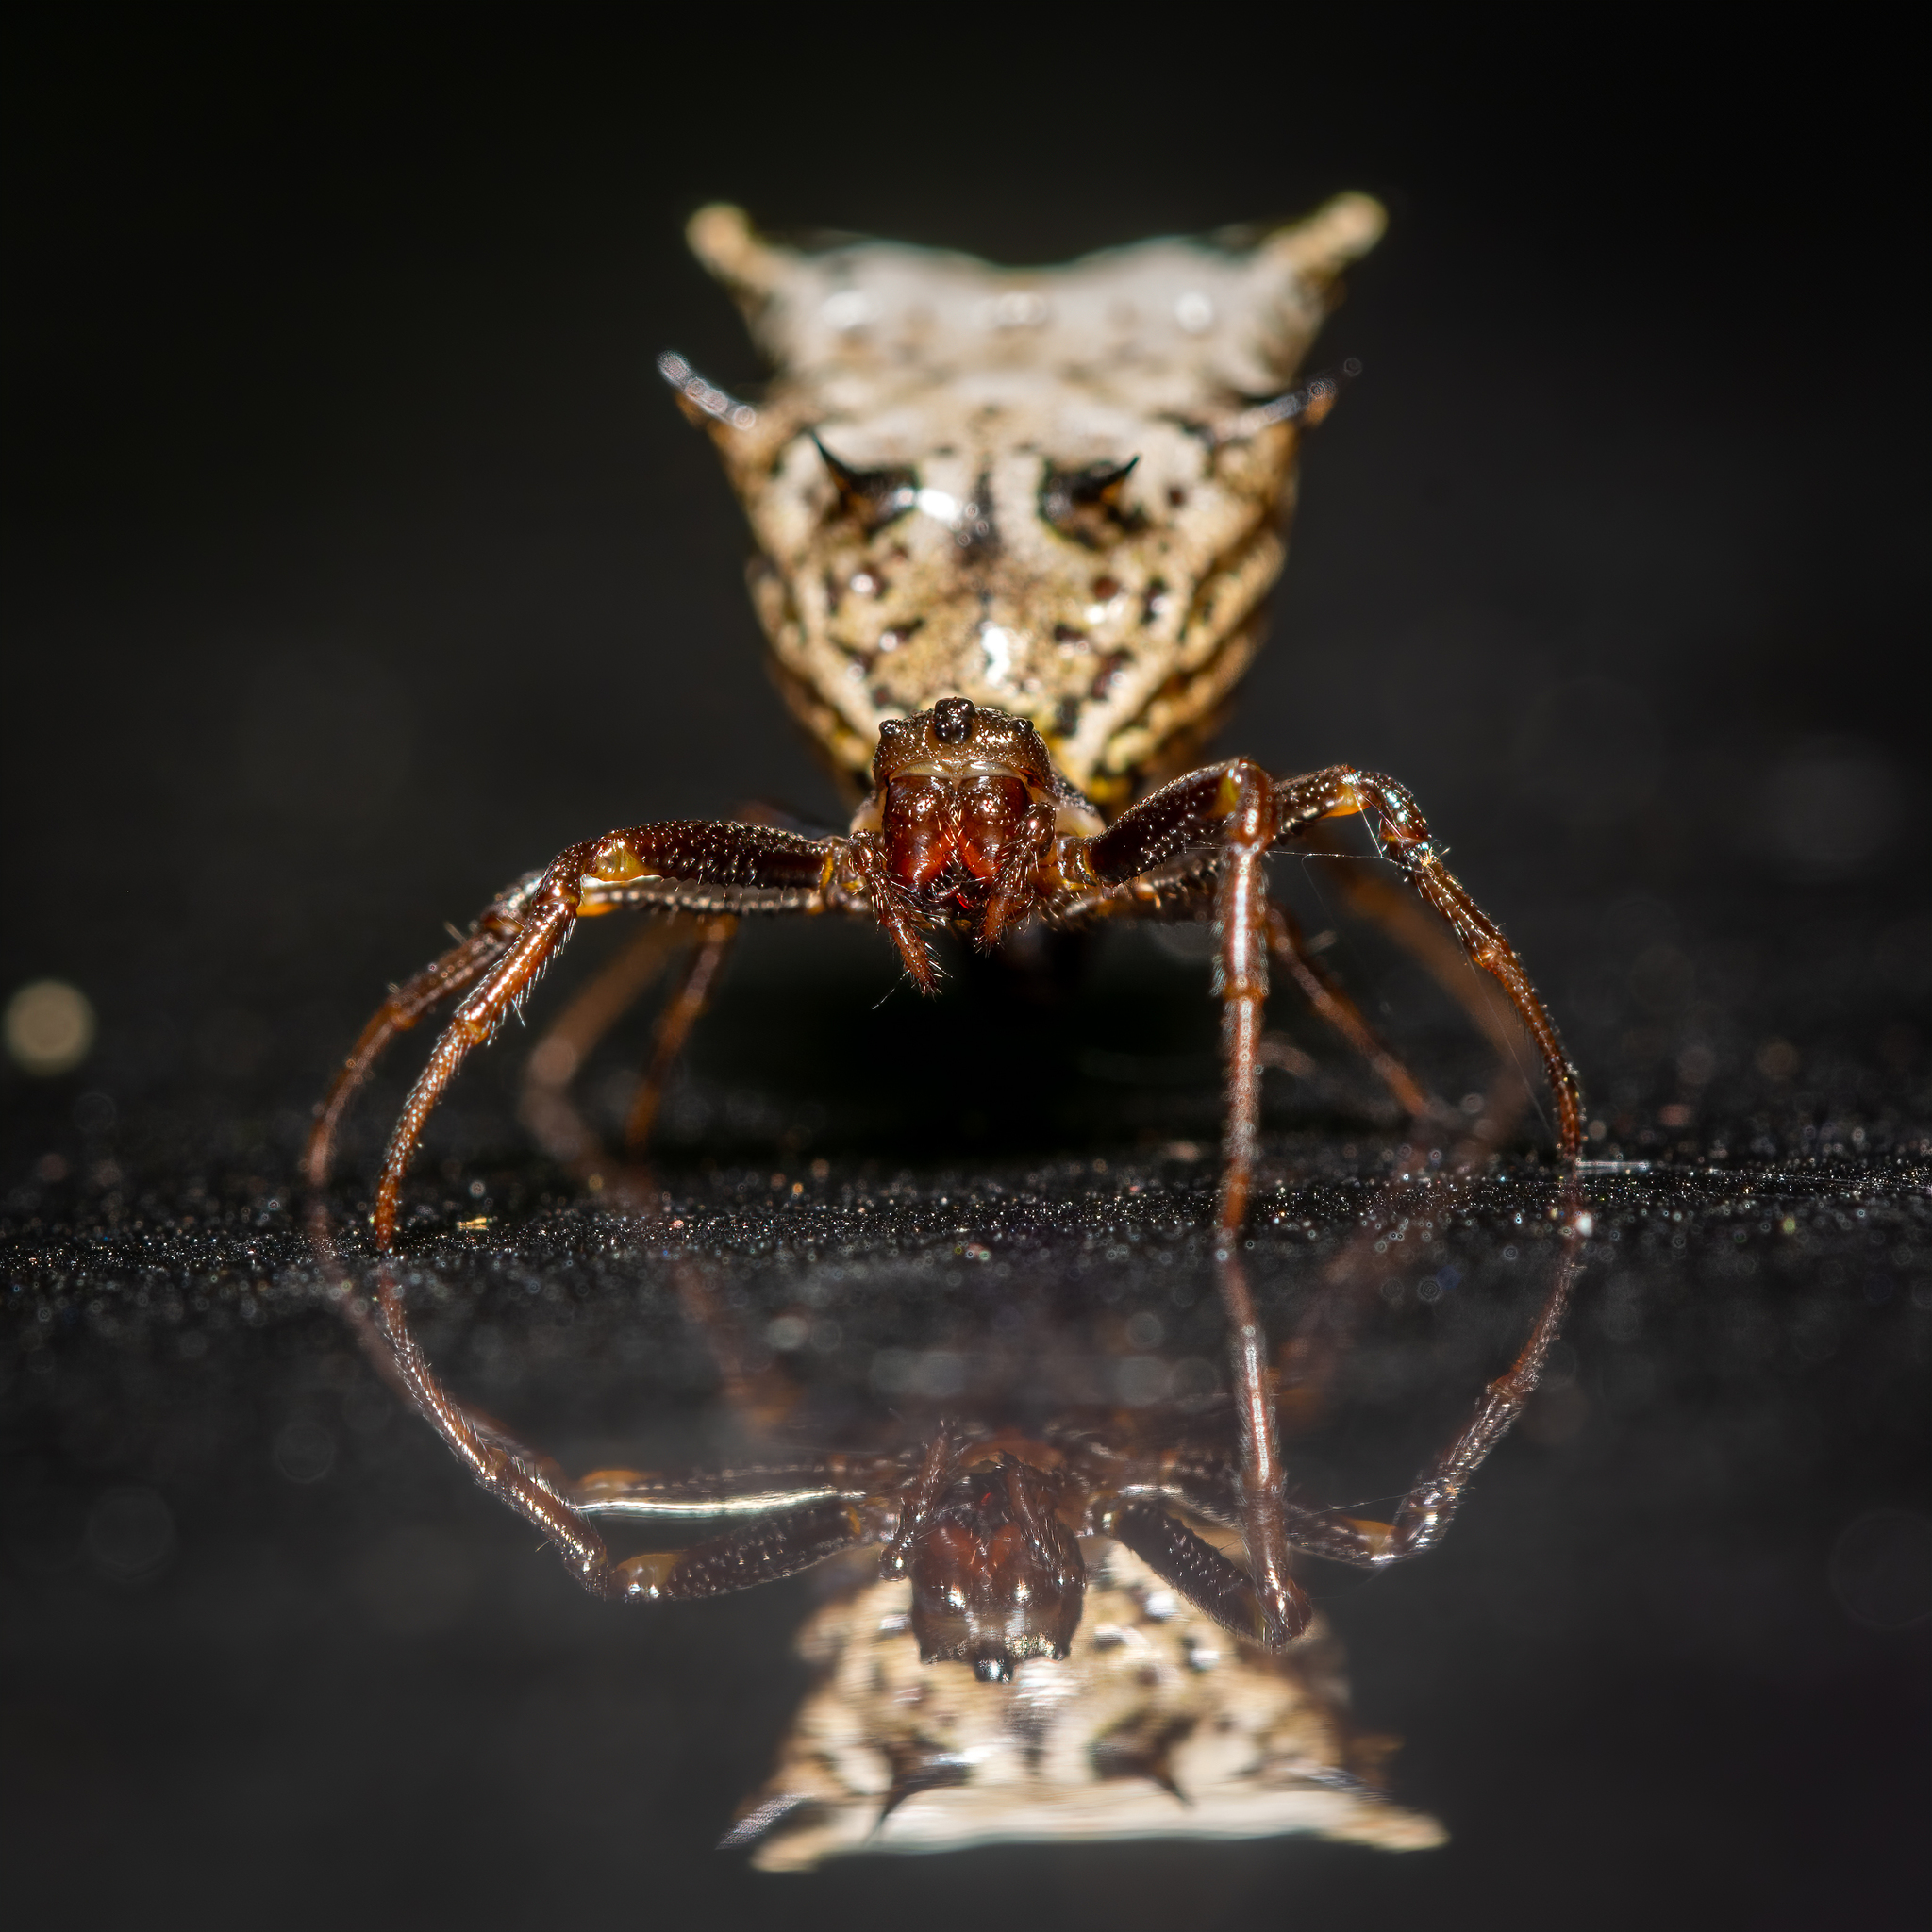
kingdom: Animalia
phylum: Arthropoda
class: Arachnida
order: Araneae
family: Araneidae
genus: Micrathena
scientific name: Micrathena gracilis
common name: Orb weavers
